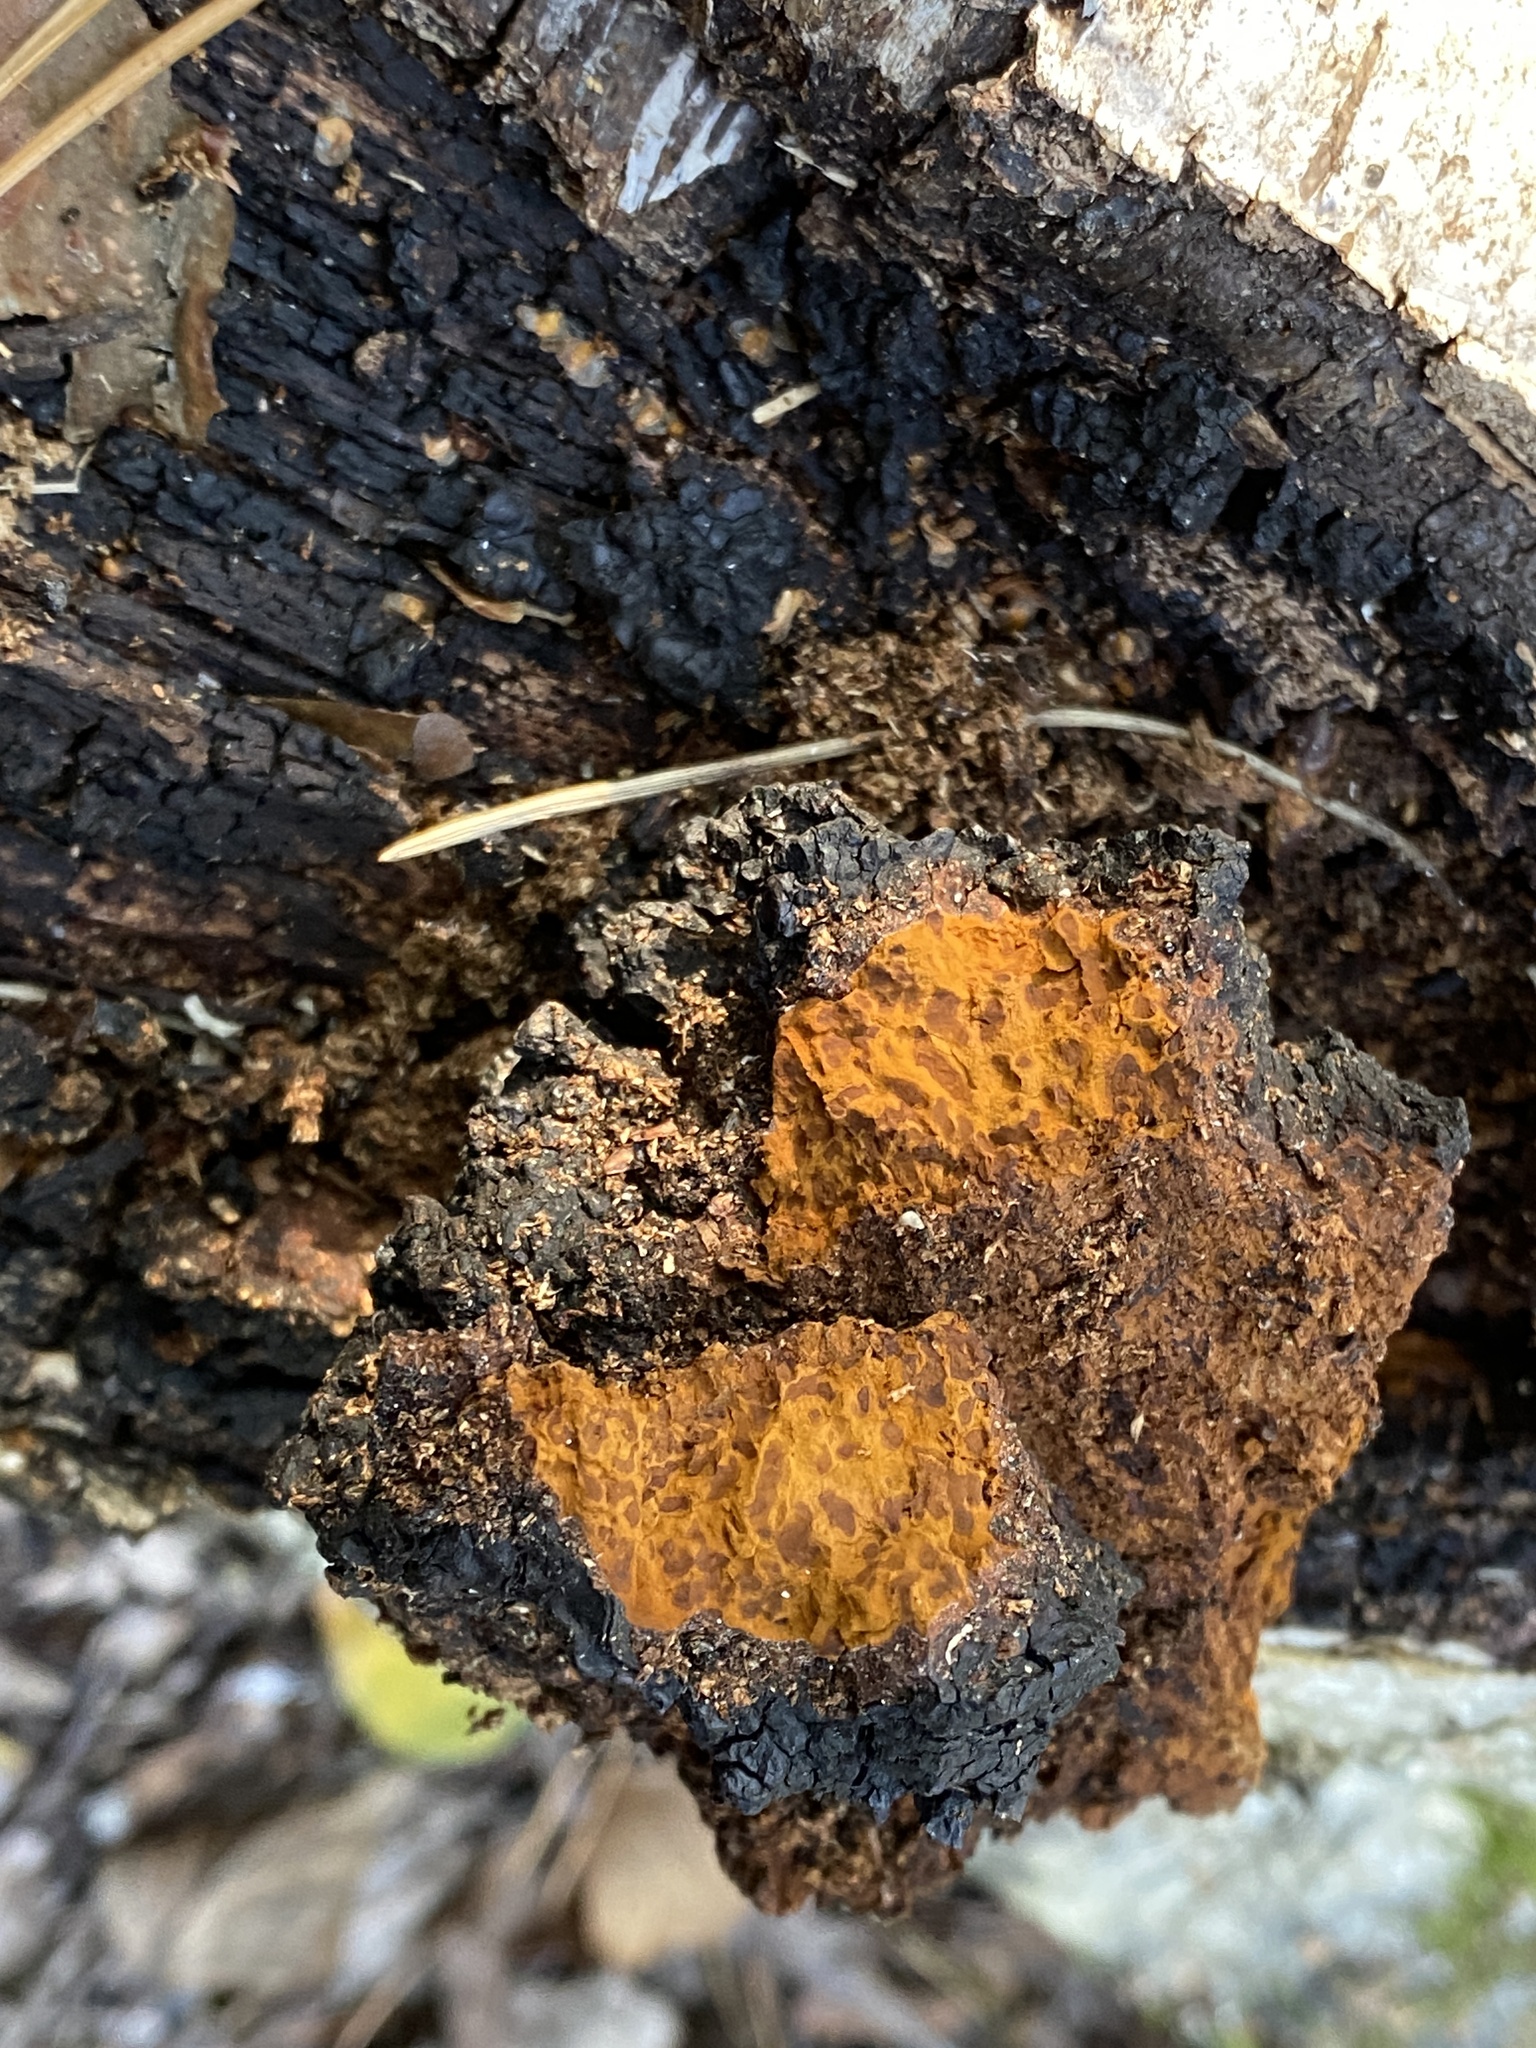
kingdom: Fungi
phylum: Basidiomycota
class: Agaricomycetes
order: Hymenochaetales
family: Hymenochaetaceae
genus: Inonotus
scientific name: Inonotus obliquus
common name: Chaga
